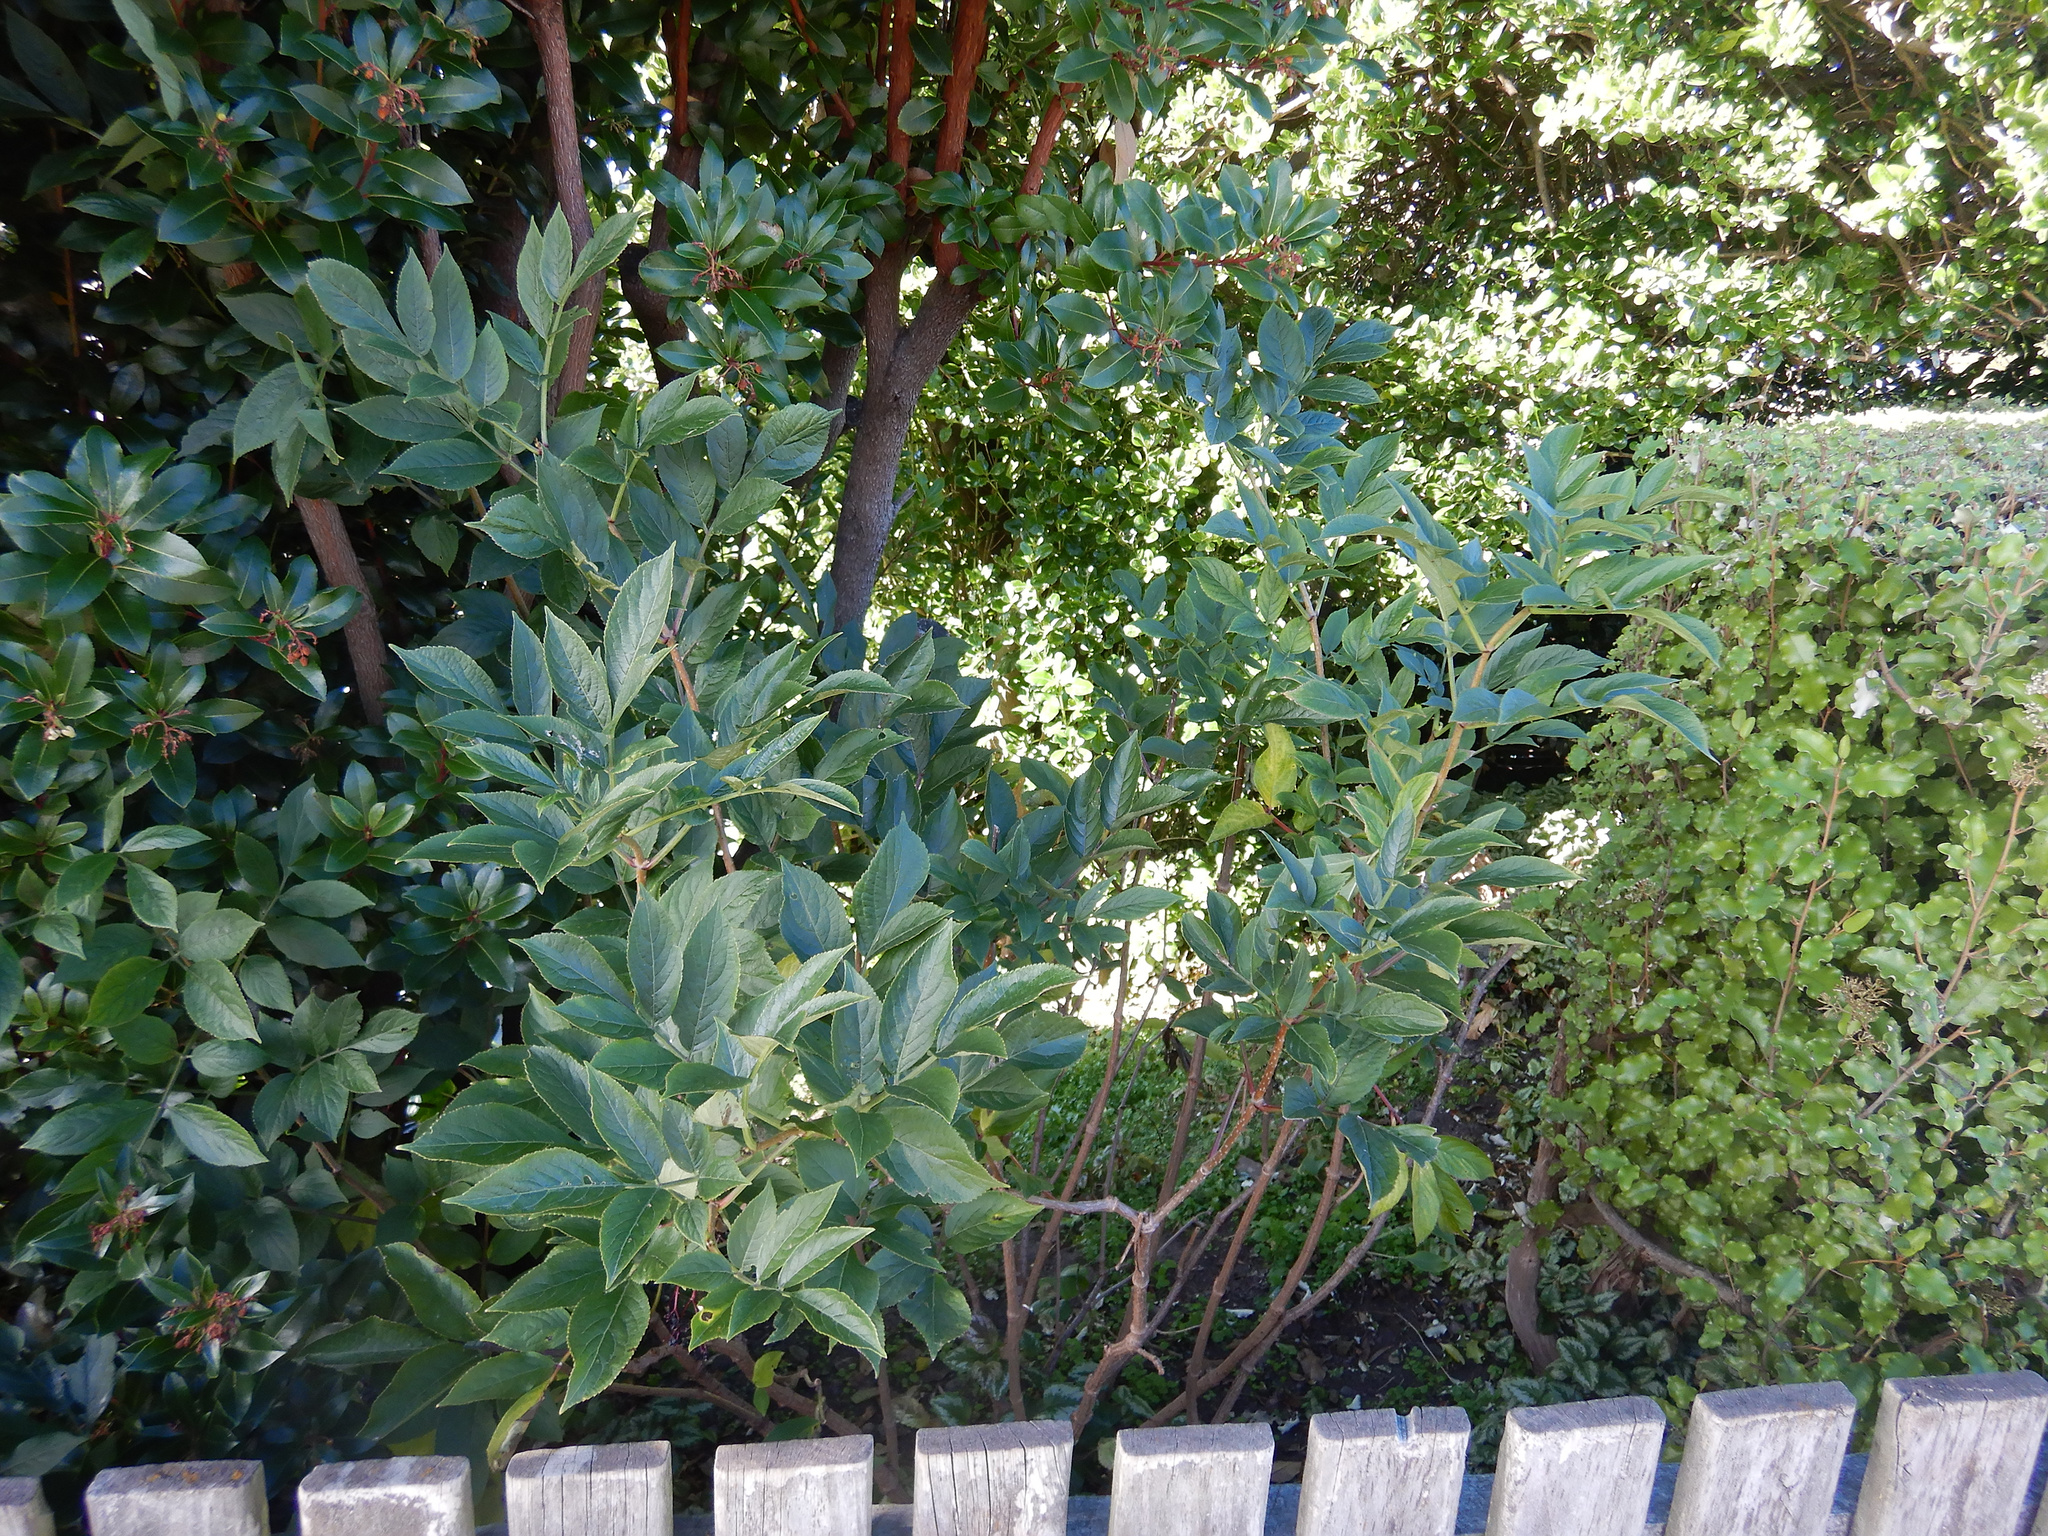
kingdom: Plantae
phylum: Tracheophyta
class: Magnoliopsida
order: Dipsacales
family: Viburnaceae
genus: Sambucus
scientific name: Sambucus nigra
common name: Elder
